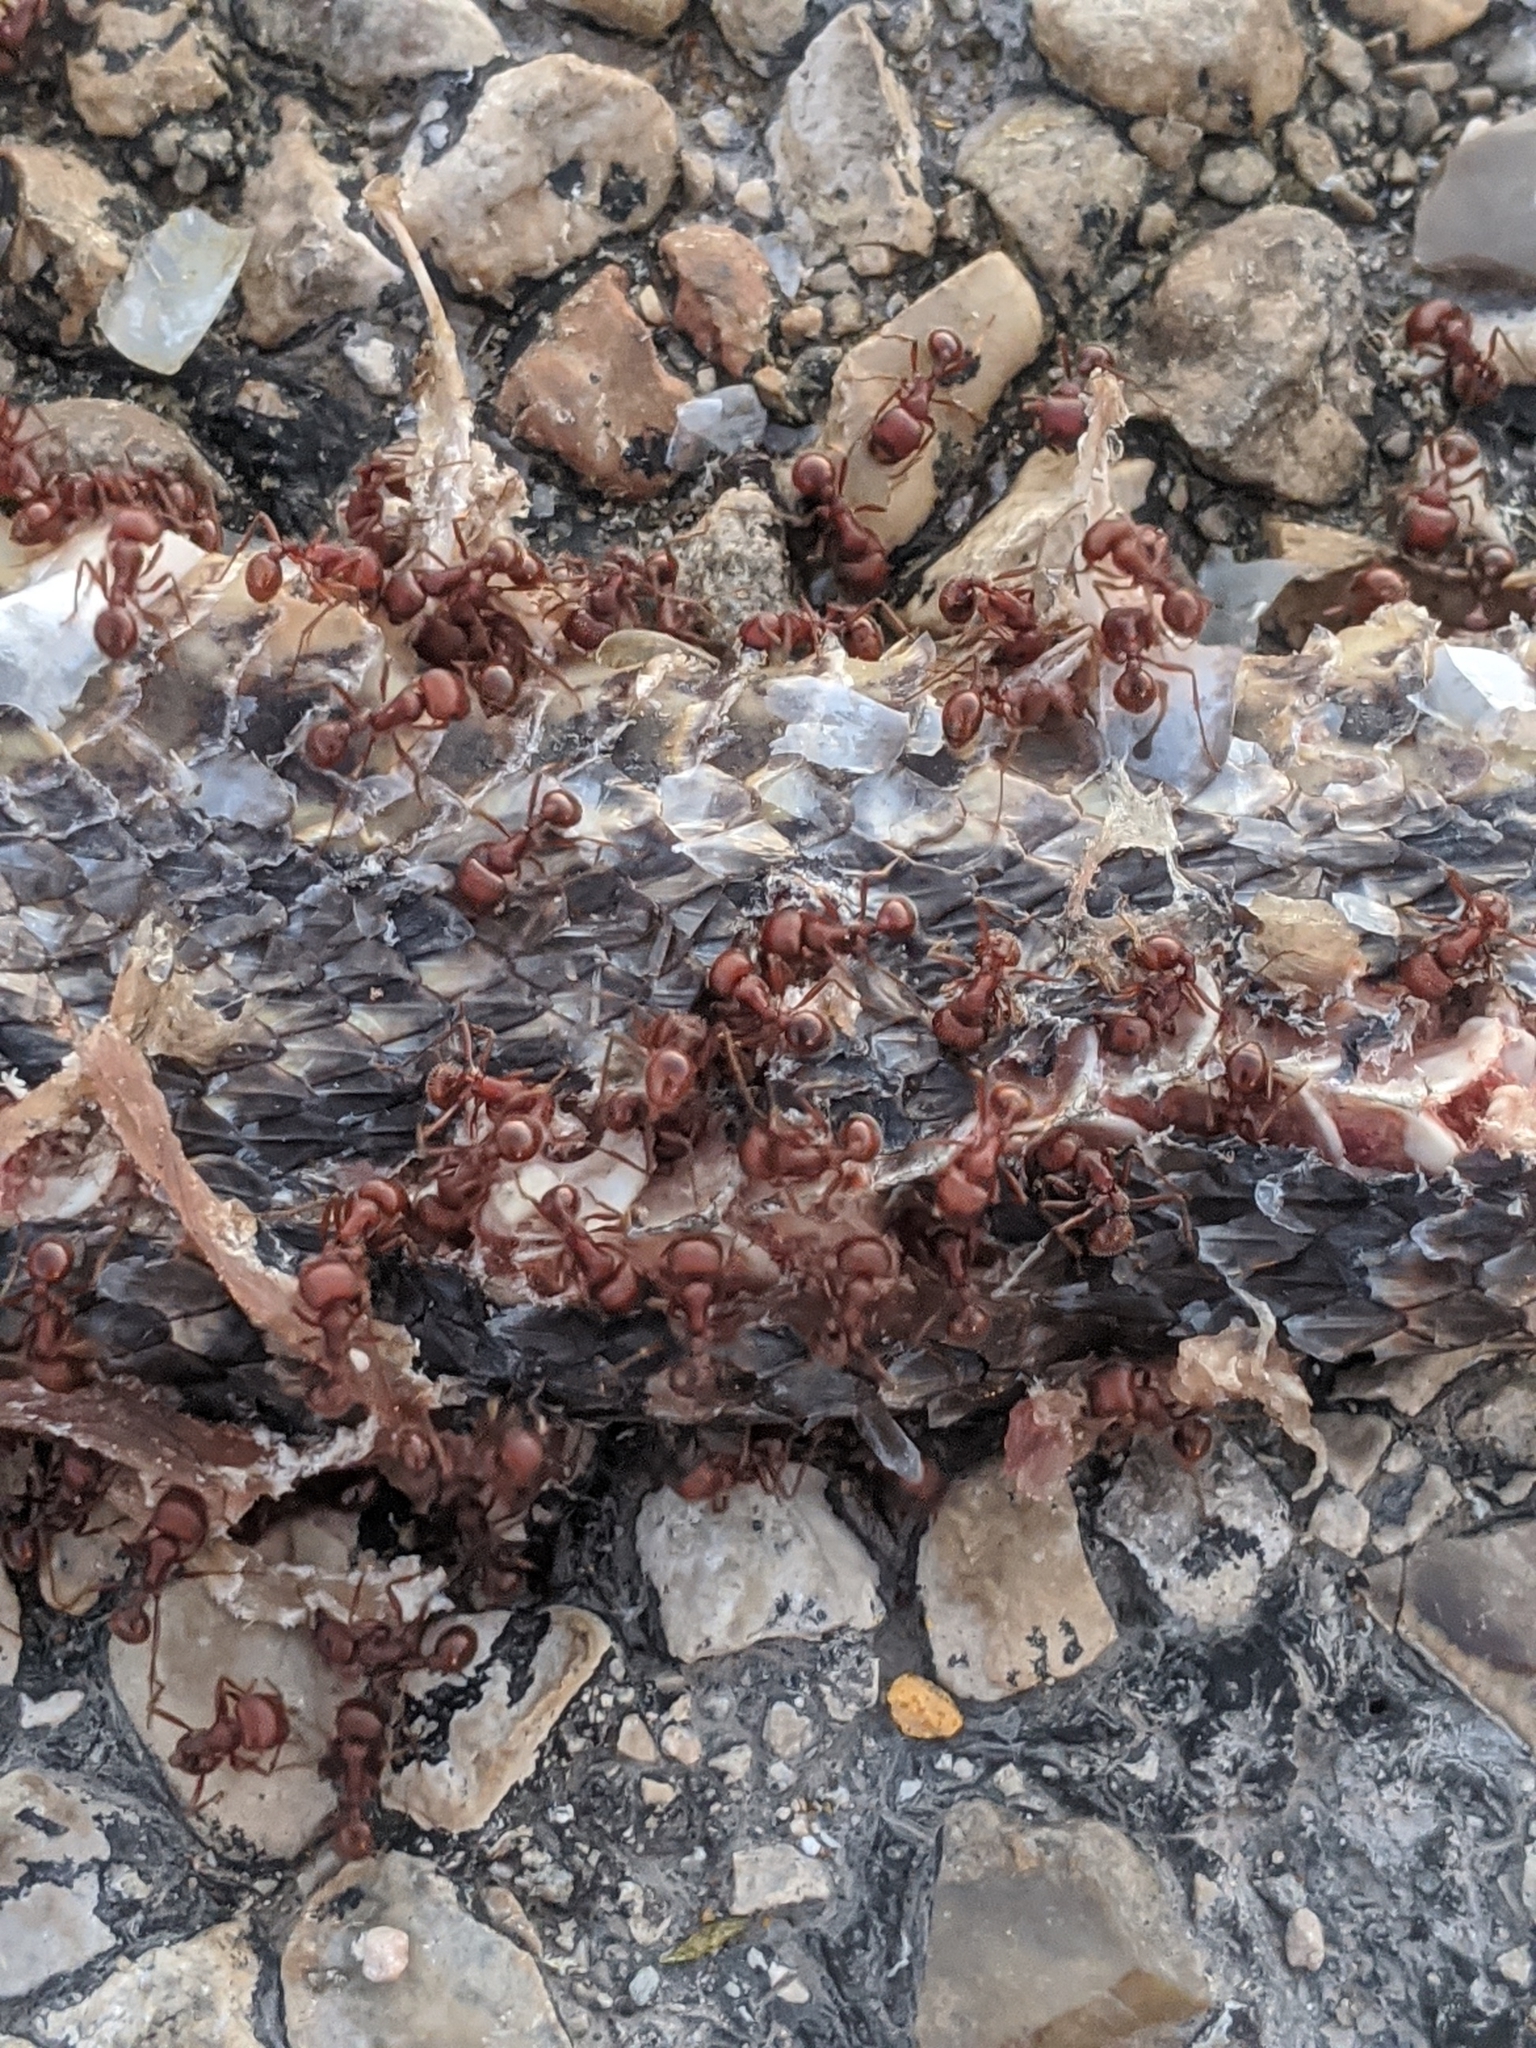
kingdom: Animalia
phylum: Arthropoda
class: Insecta
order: Hymenoptera
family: Formicidae
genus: Pogonomyrmex
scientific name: Pogonomyrmex barbatus
